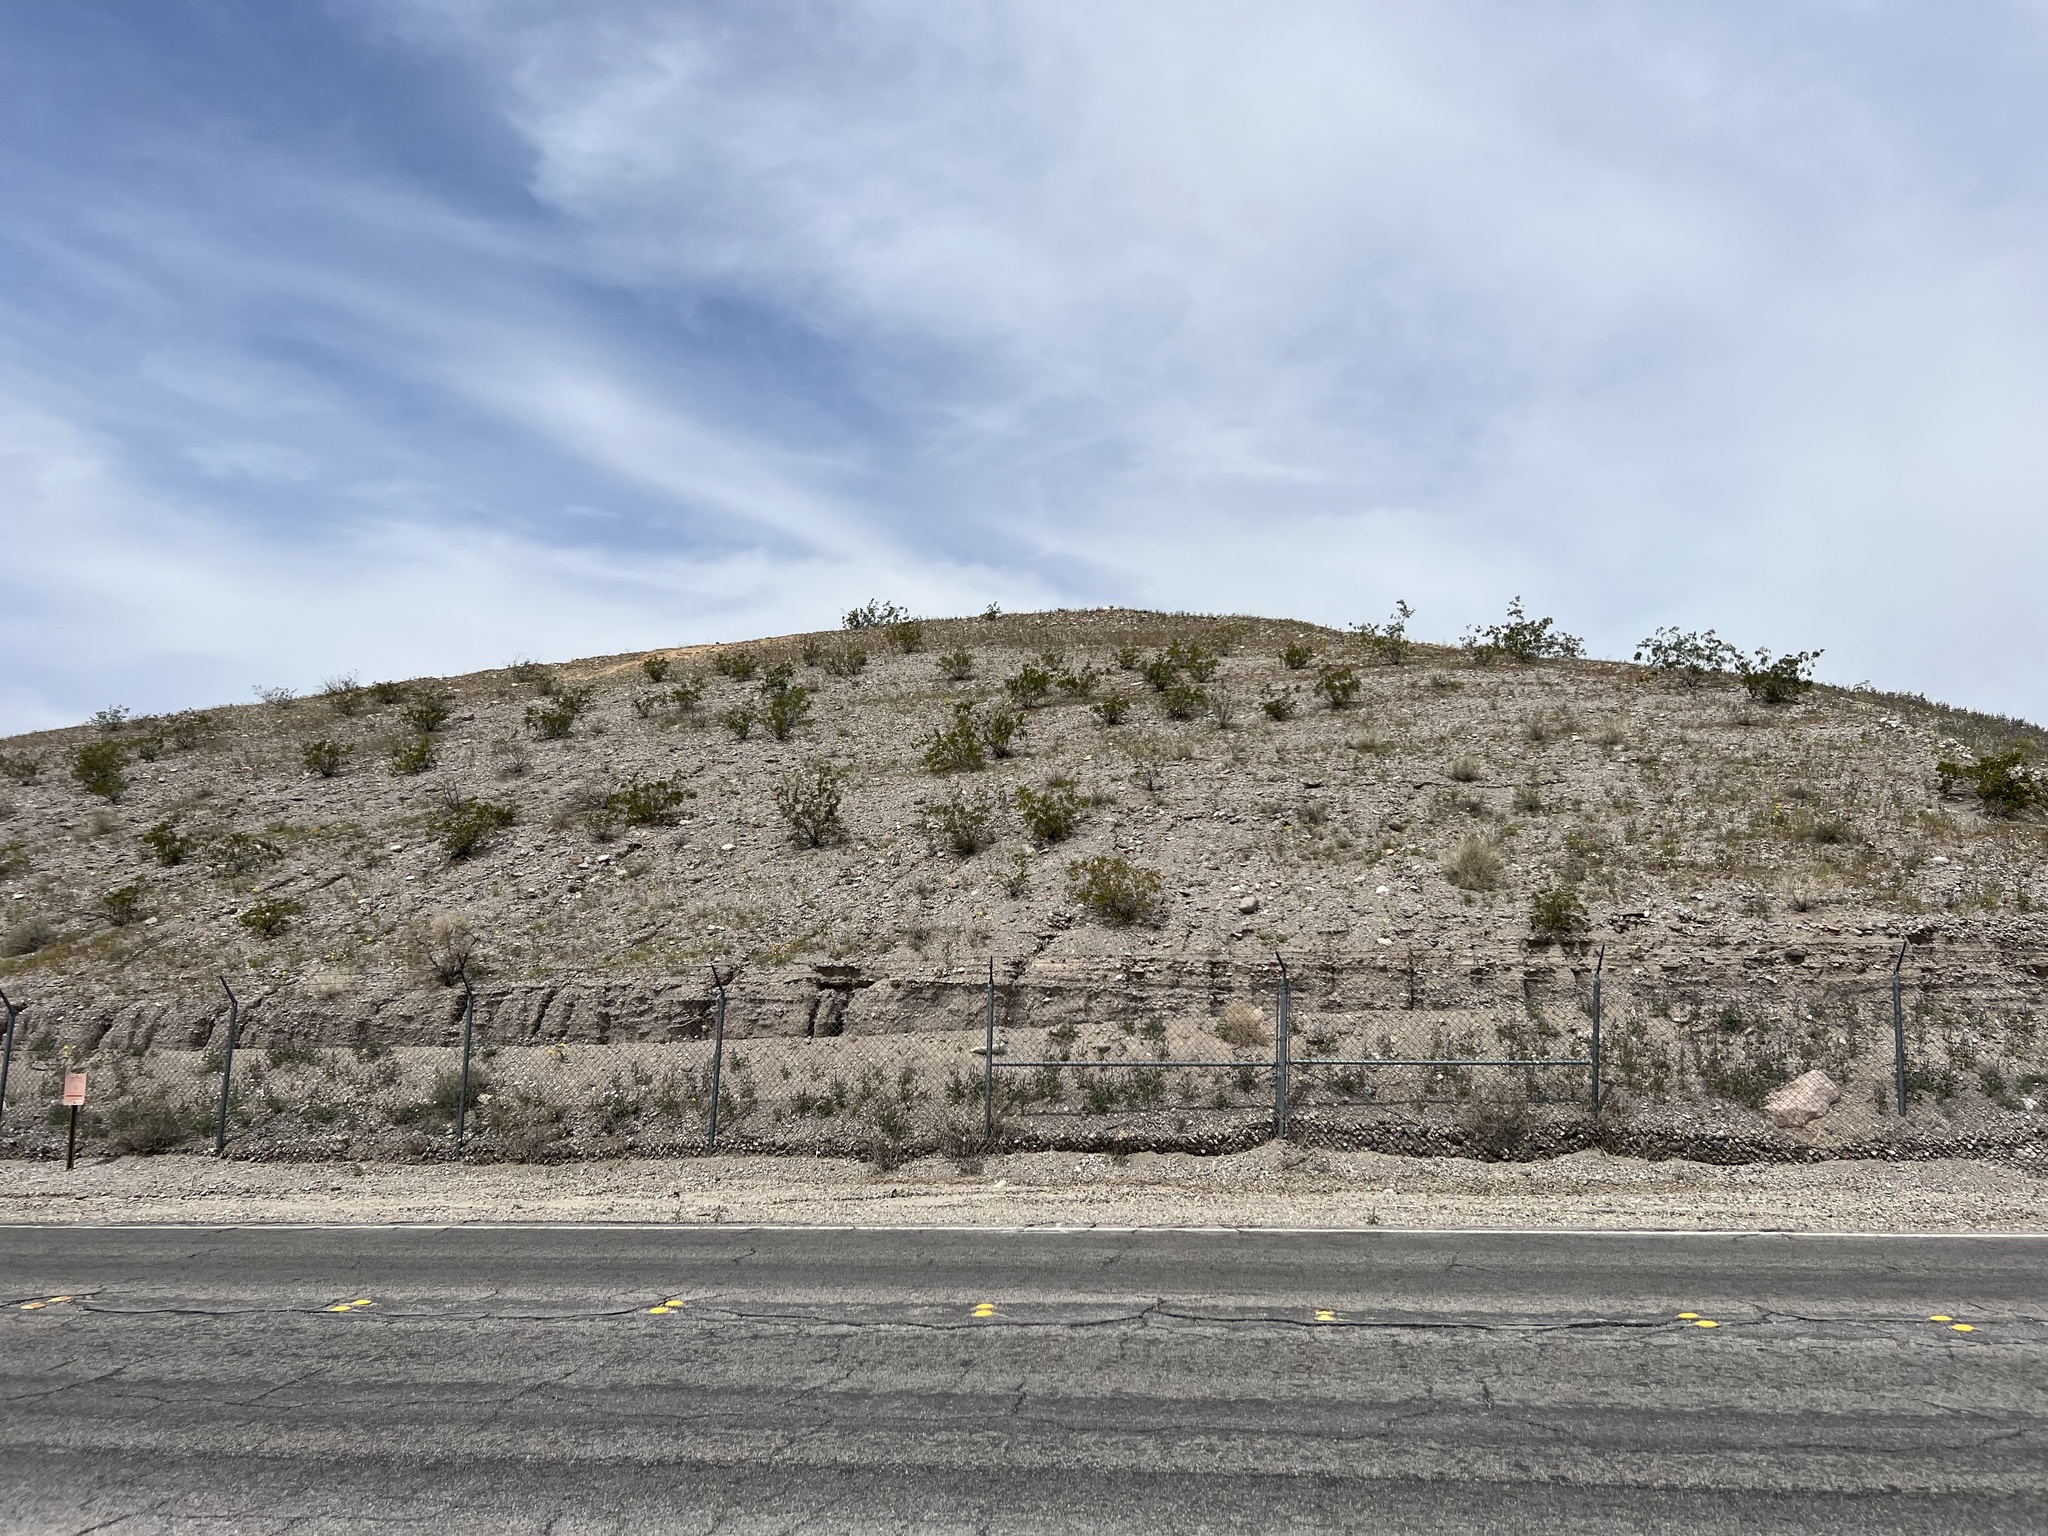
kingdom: Plantae
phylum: Tracheophyta
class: Magnoliopsida
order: Zygophyllales
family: Zygophyllaceae
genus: Larrea
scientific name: Larrea tridentata
